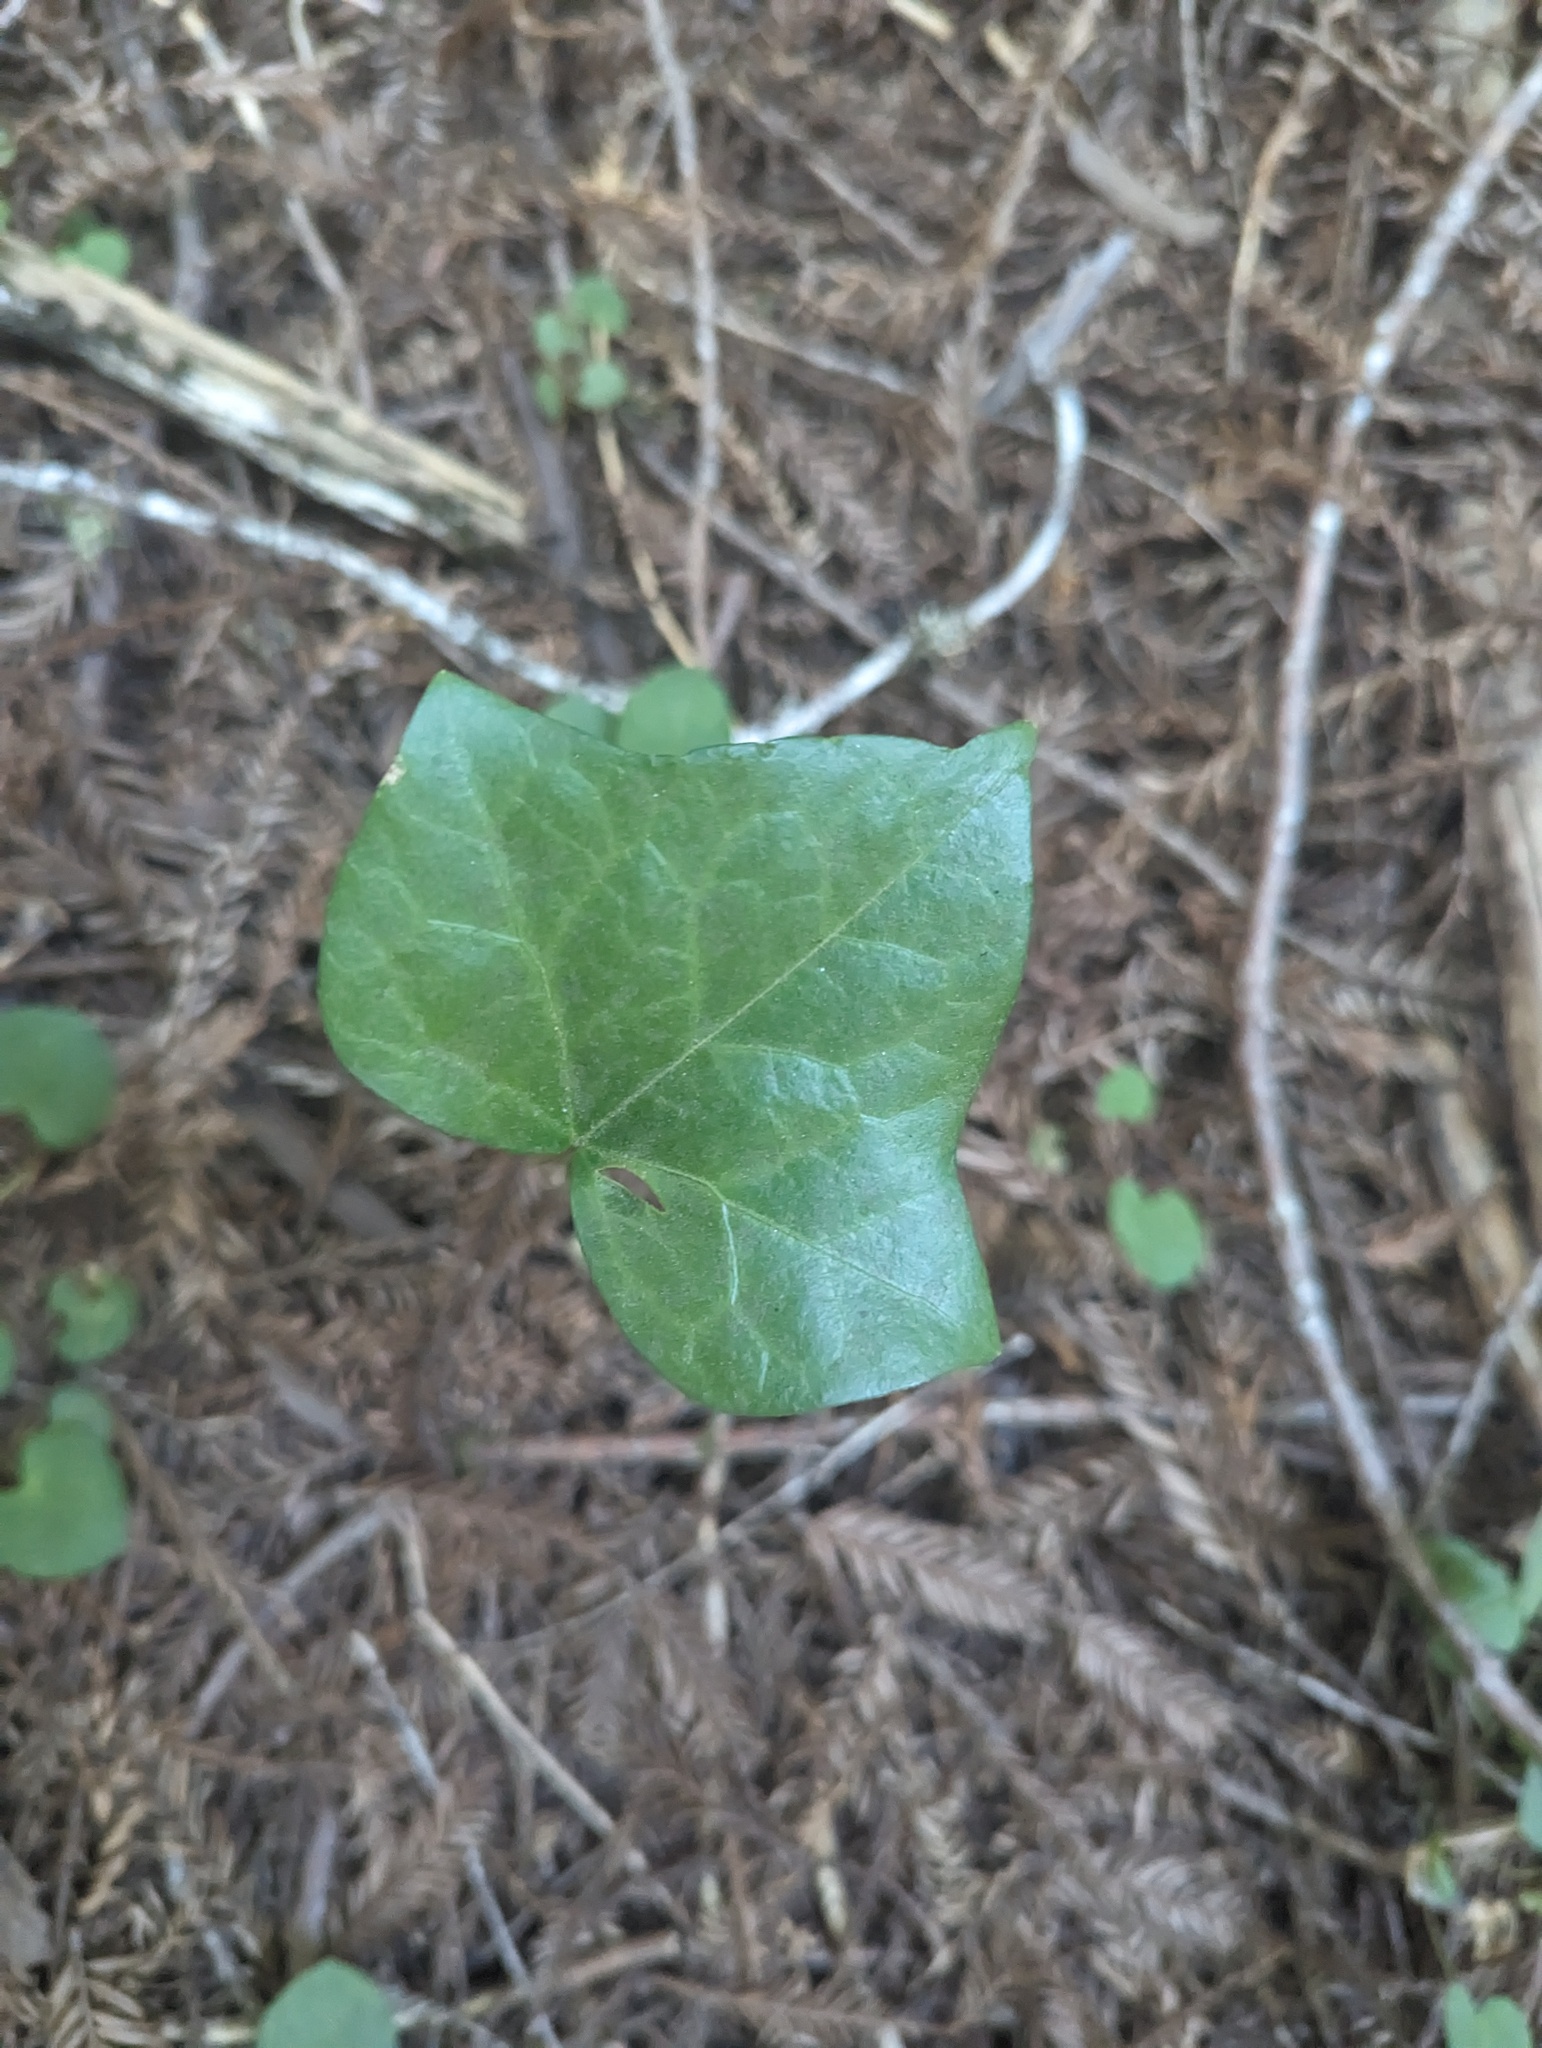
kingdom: Plantae
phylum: Tracheophyta
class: Magnoliopsida
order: Apiales
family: Araliaceae
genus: Hedera
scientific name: Hedera helix
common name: Ivy
